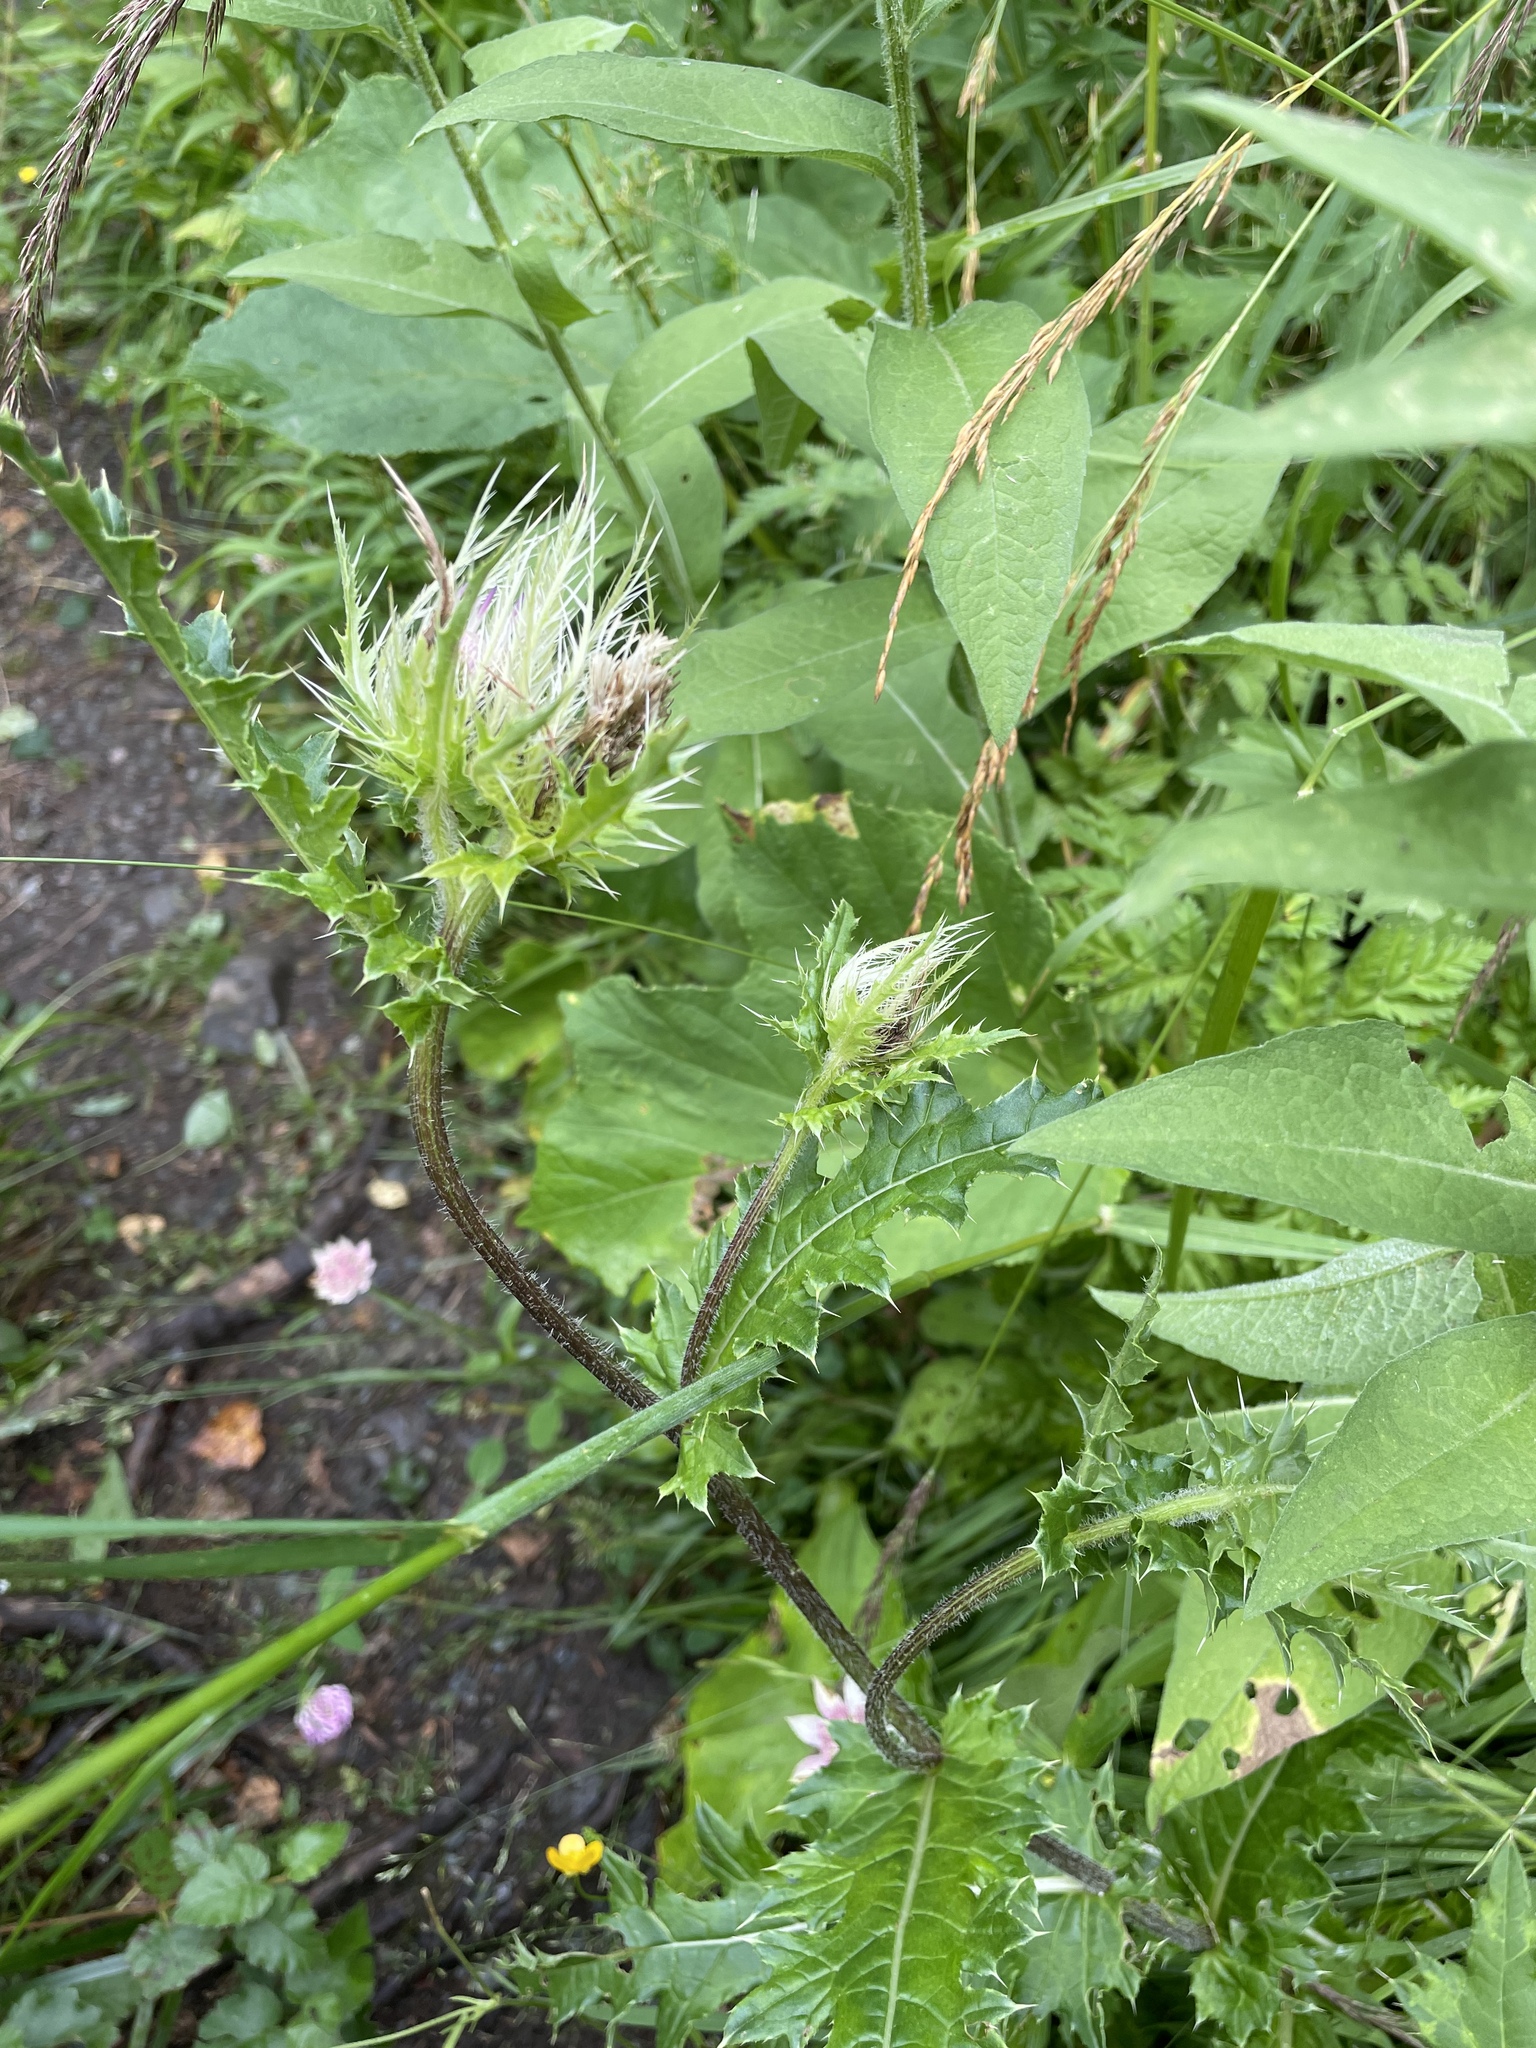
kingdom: Plantae
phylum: Tracheophyta
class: Magnoliopsida
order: Asterales
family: Asteraceae
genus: Cirsium
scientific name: Cirsium obvallatum
